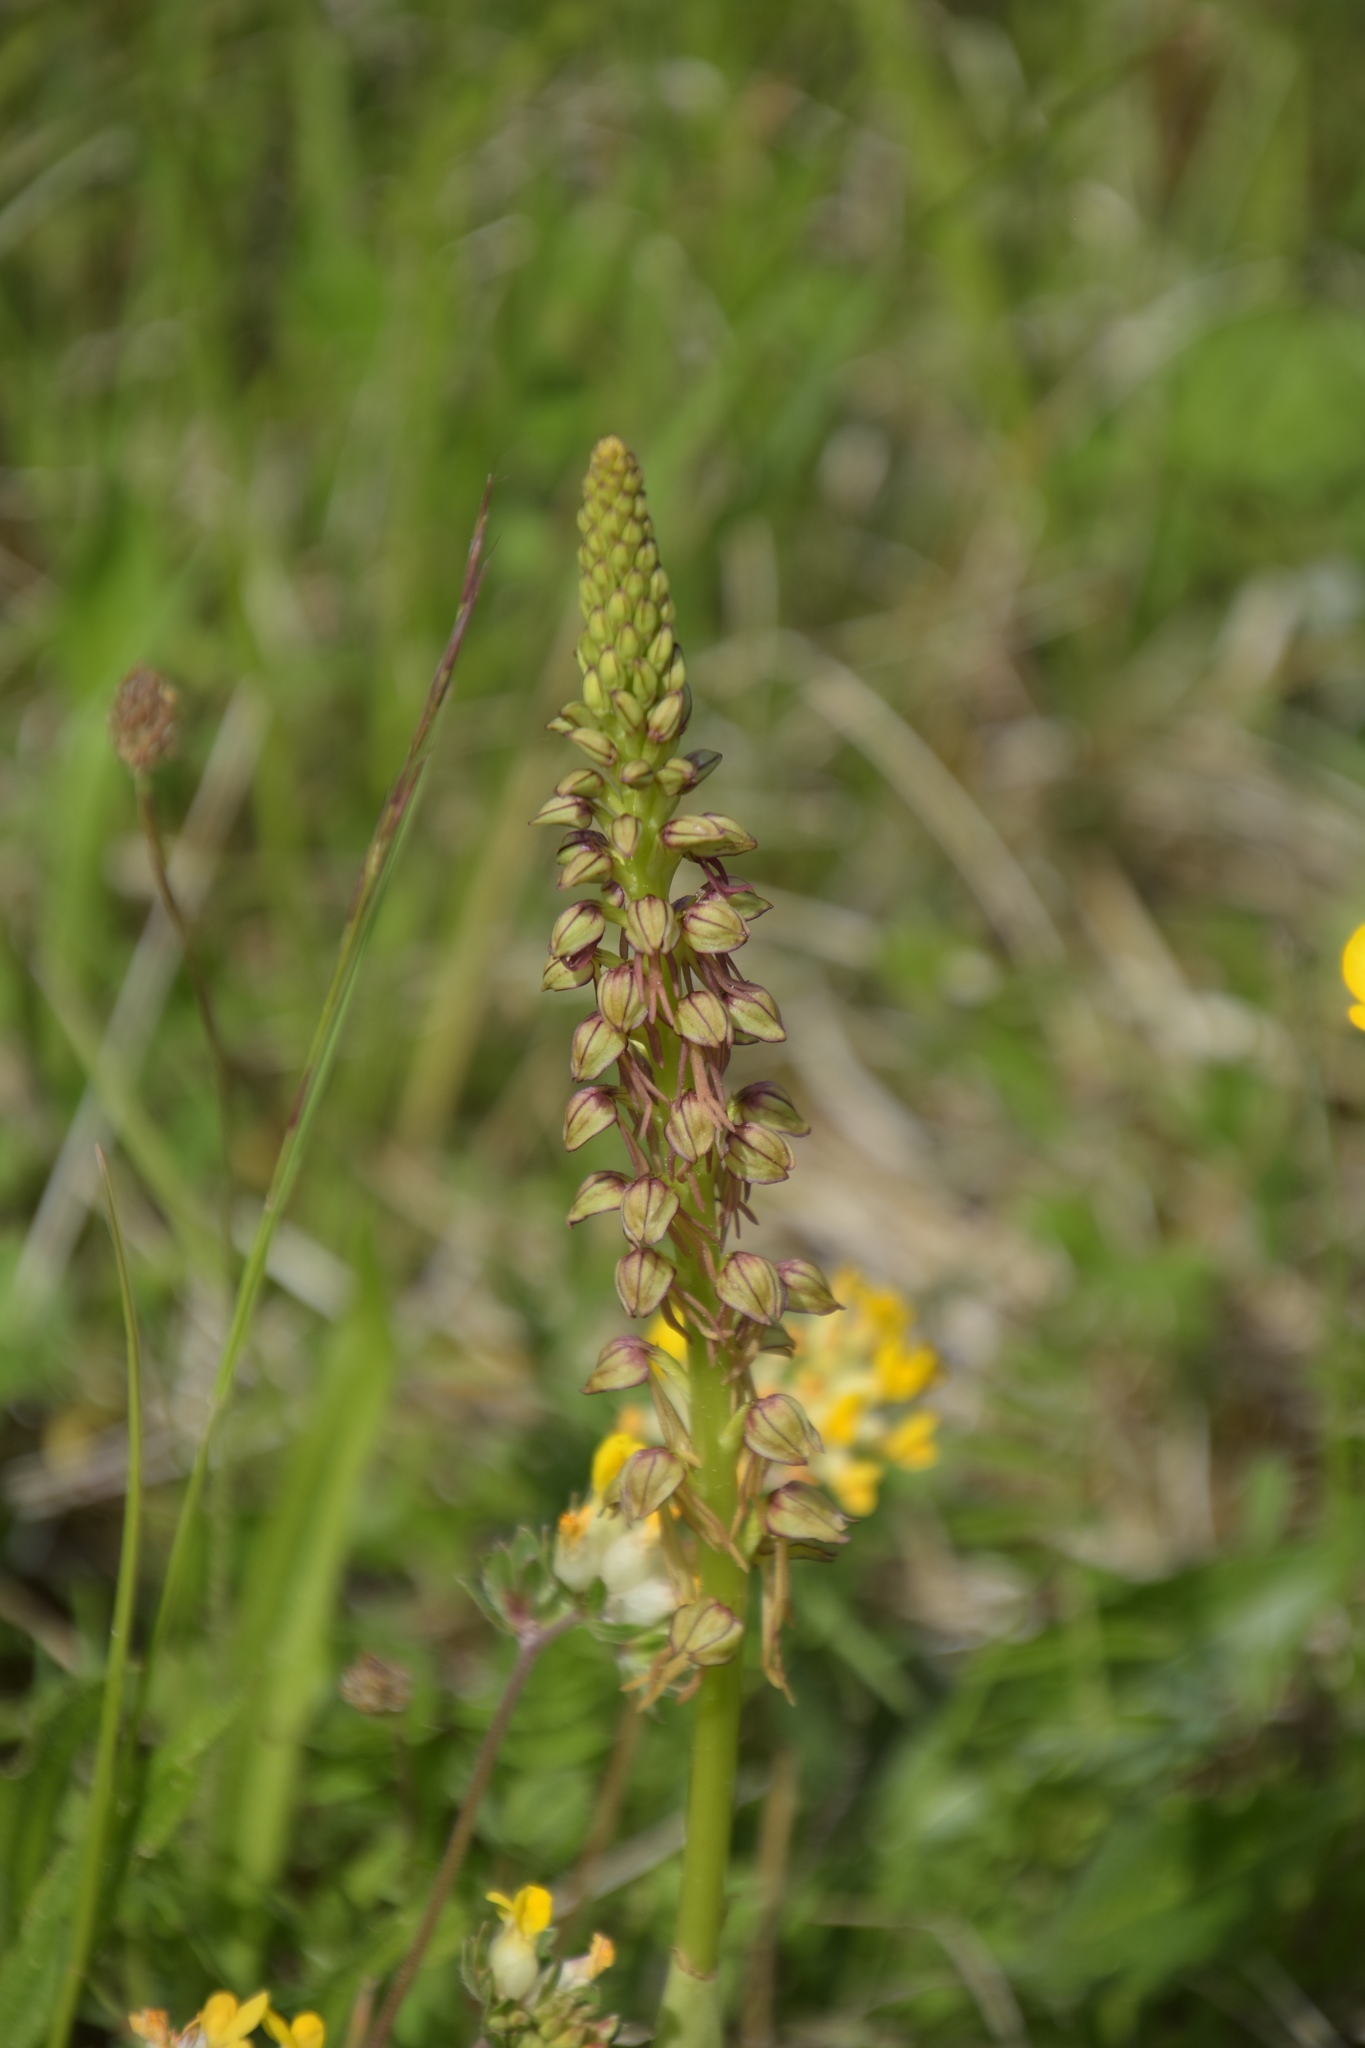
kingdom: Plantae
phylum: Tracheophyta
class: Liliopsida
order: Asparagales
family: Orchidaceae
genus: Orchis
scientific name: Orchis anthropophora
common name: Man orchid
